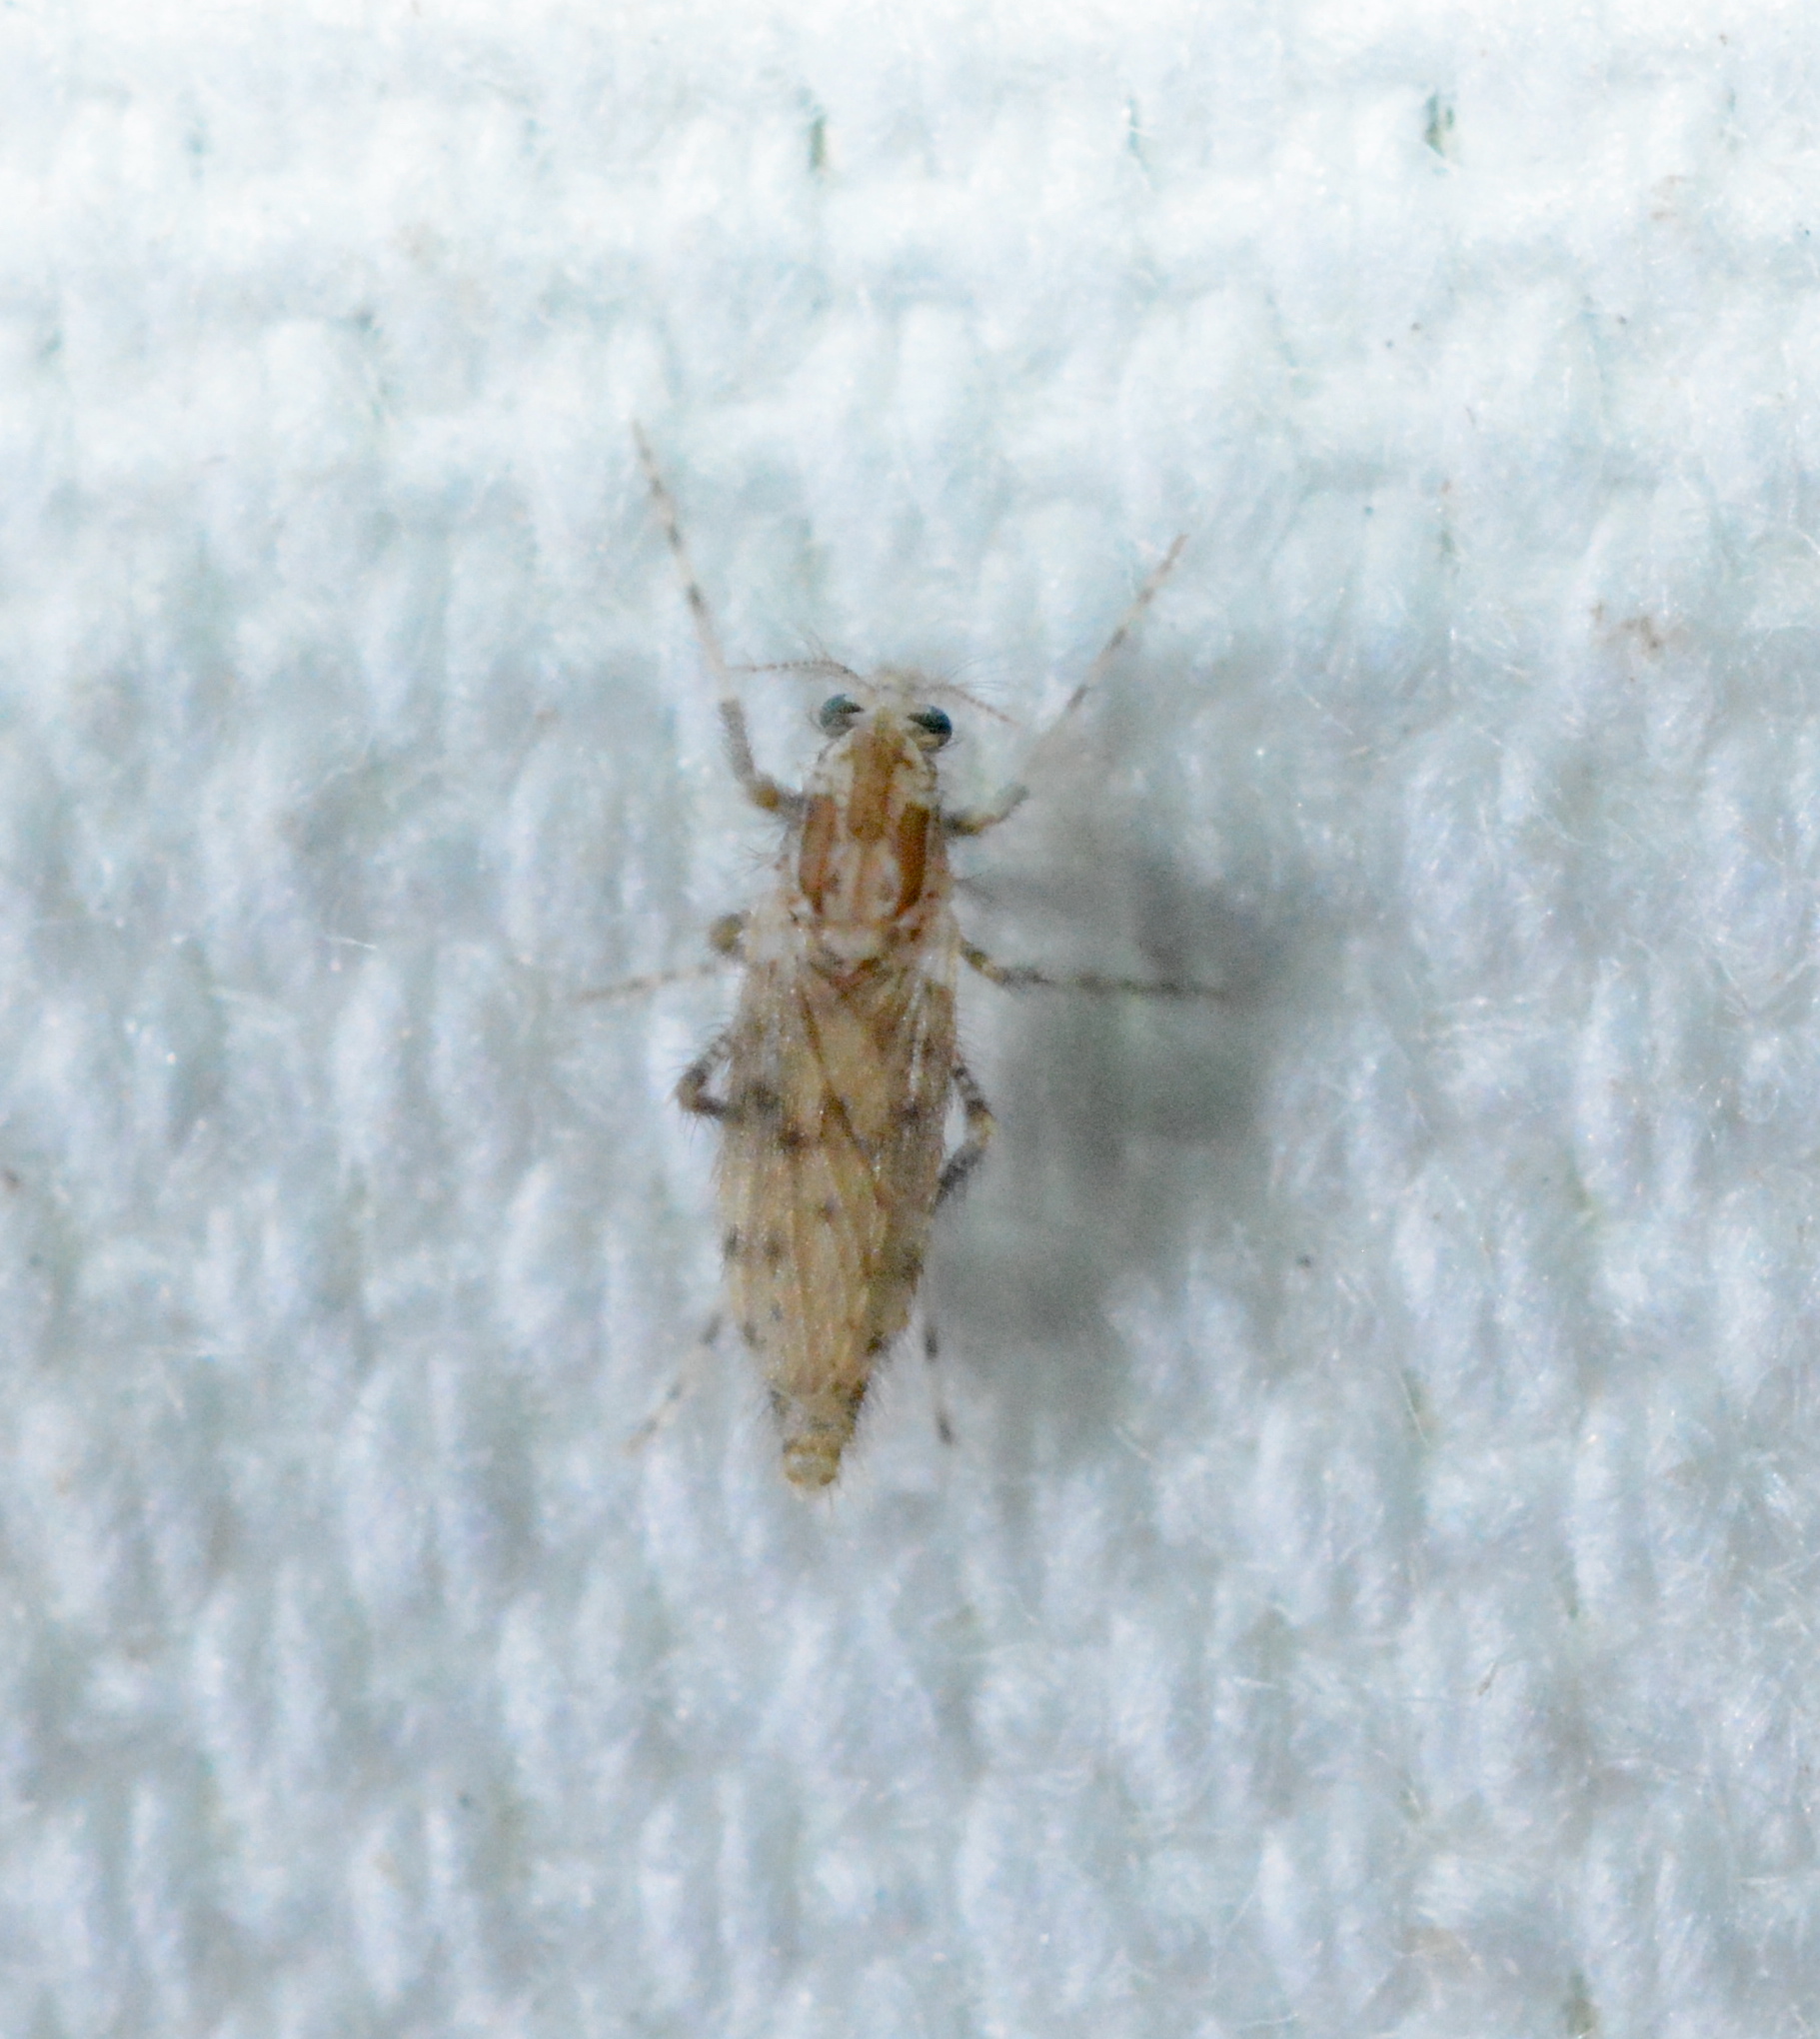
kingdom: Animalia
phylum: Arthropoda
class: Insecta
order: Diptera
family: Chaoboridae
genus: Chaoborus
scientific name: Chaoborus punctipennis
